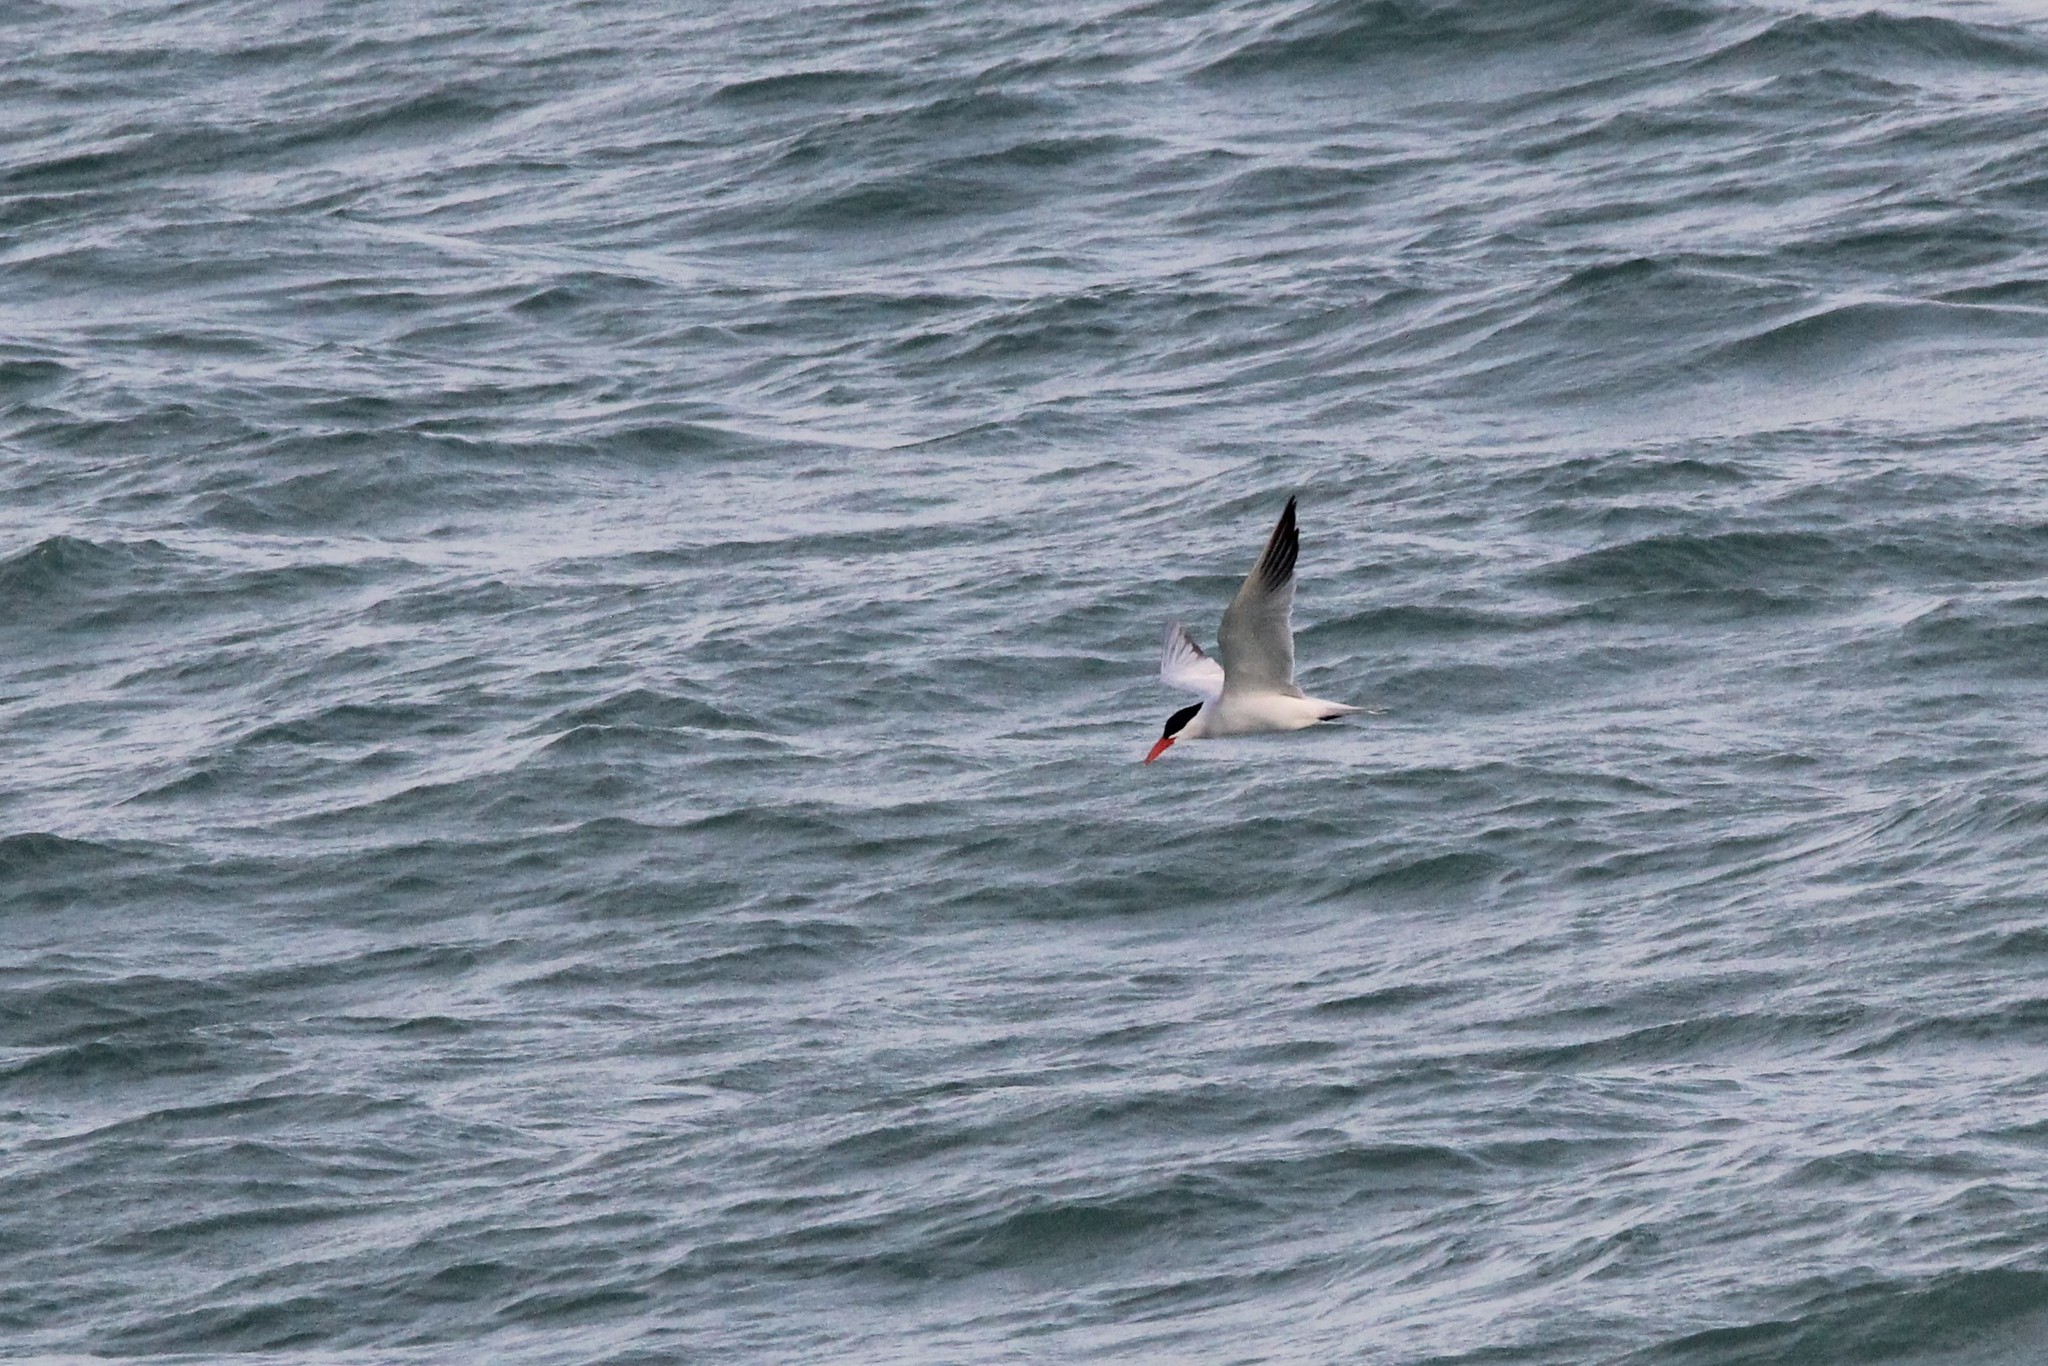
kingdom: Animalia
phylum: Chordata
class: Aves
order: Charadriiformes
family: Laridae
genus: Hydroprogne
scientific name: Hydroprogne caspia
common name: Caspian tern
